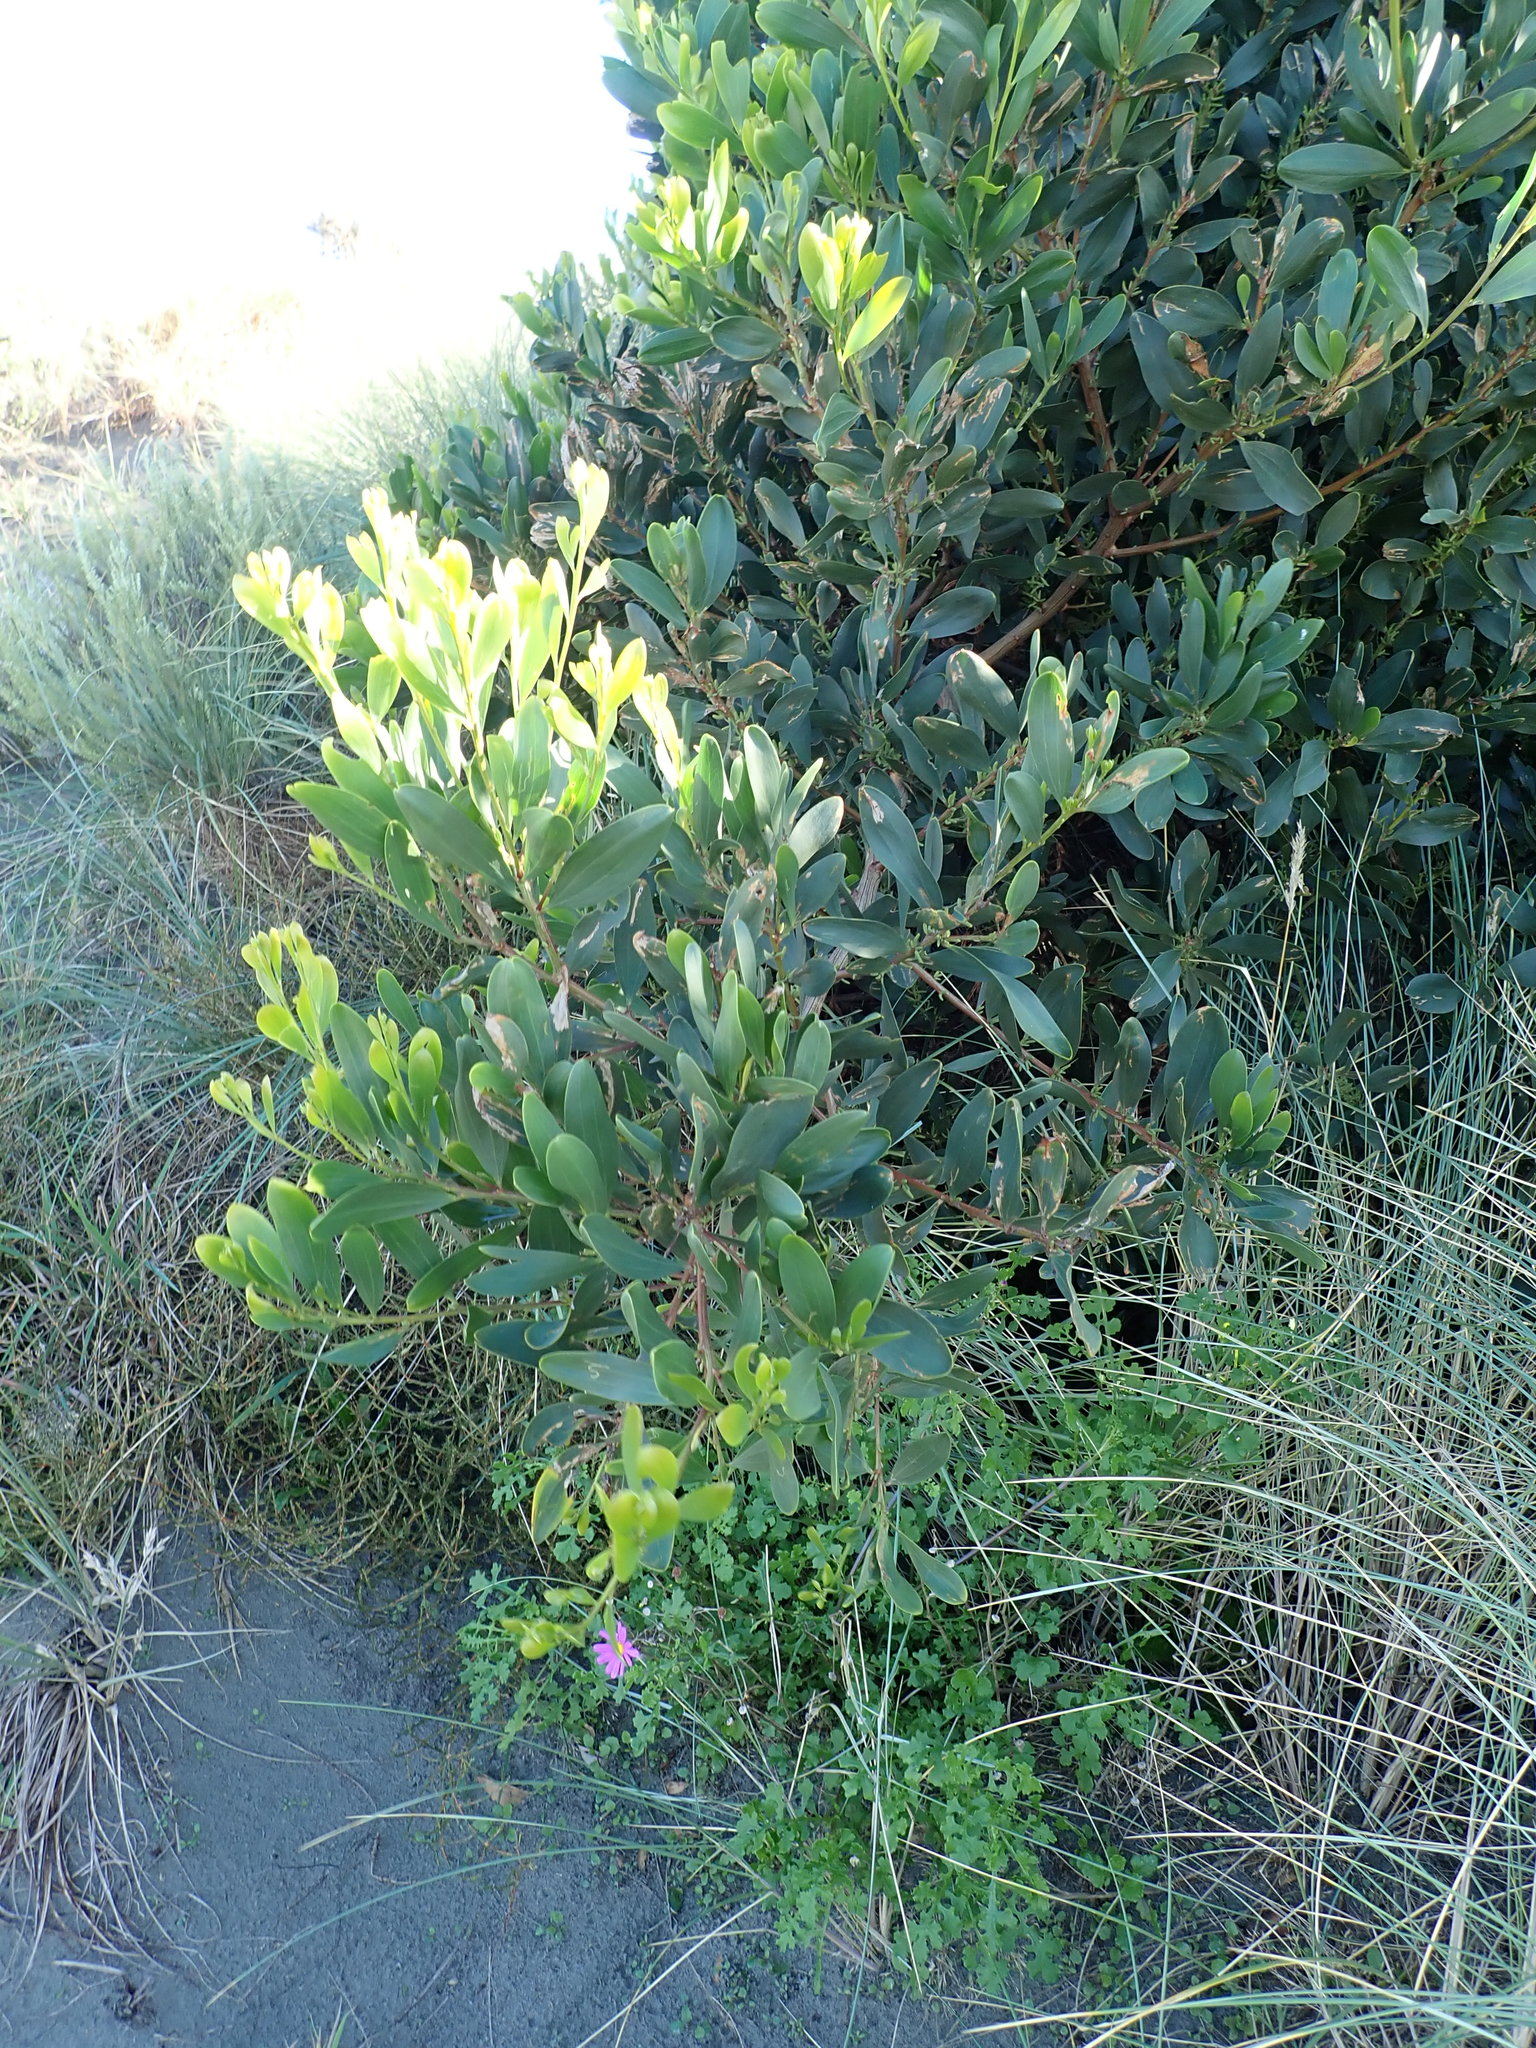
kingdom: Plantae
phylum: Tracheophyta
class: Magnoliopsida
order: Fabales
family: Fabaceae
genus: Acacia
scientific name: Acacia longifolia
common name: Sydney golden wattle
